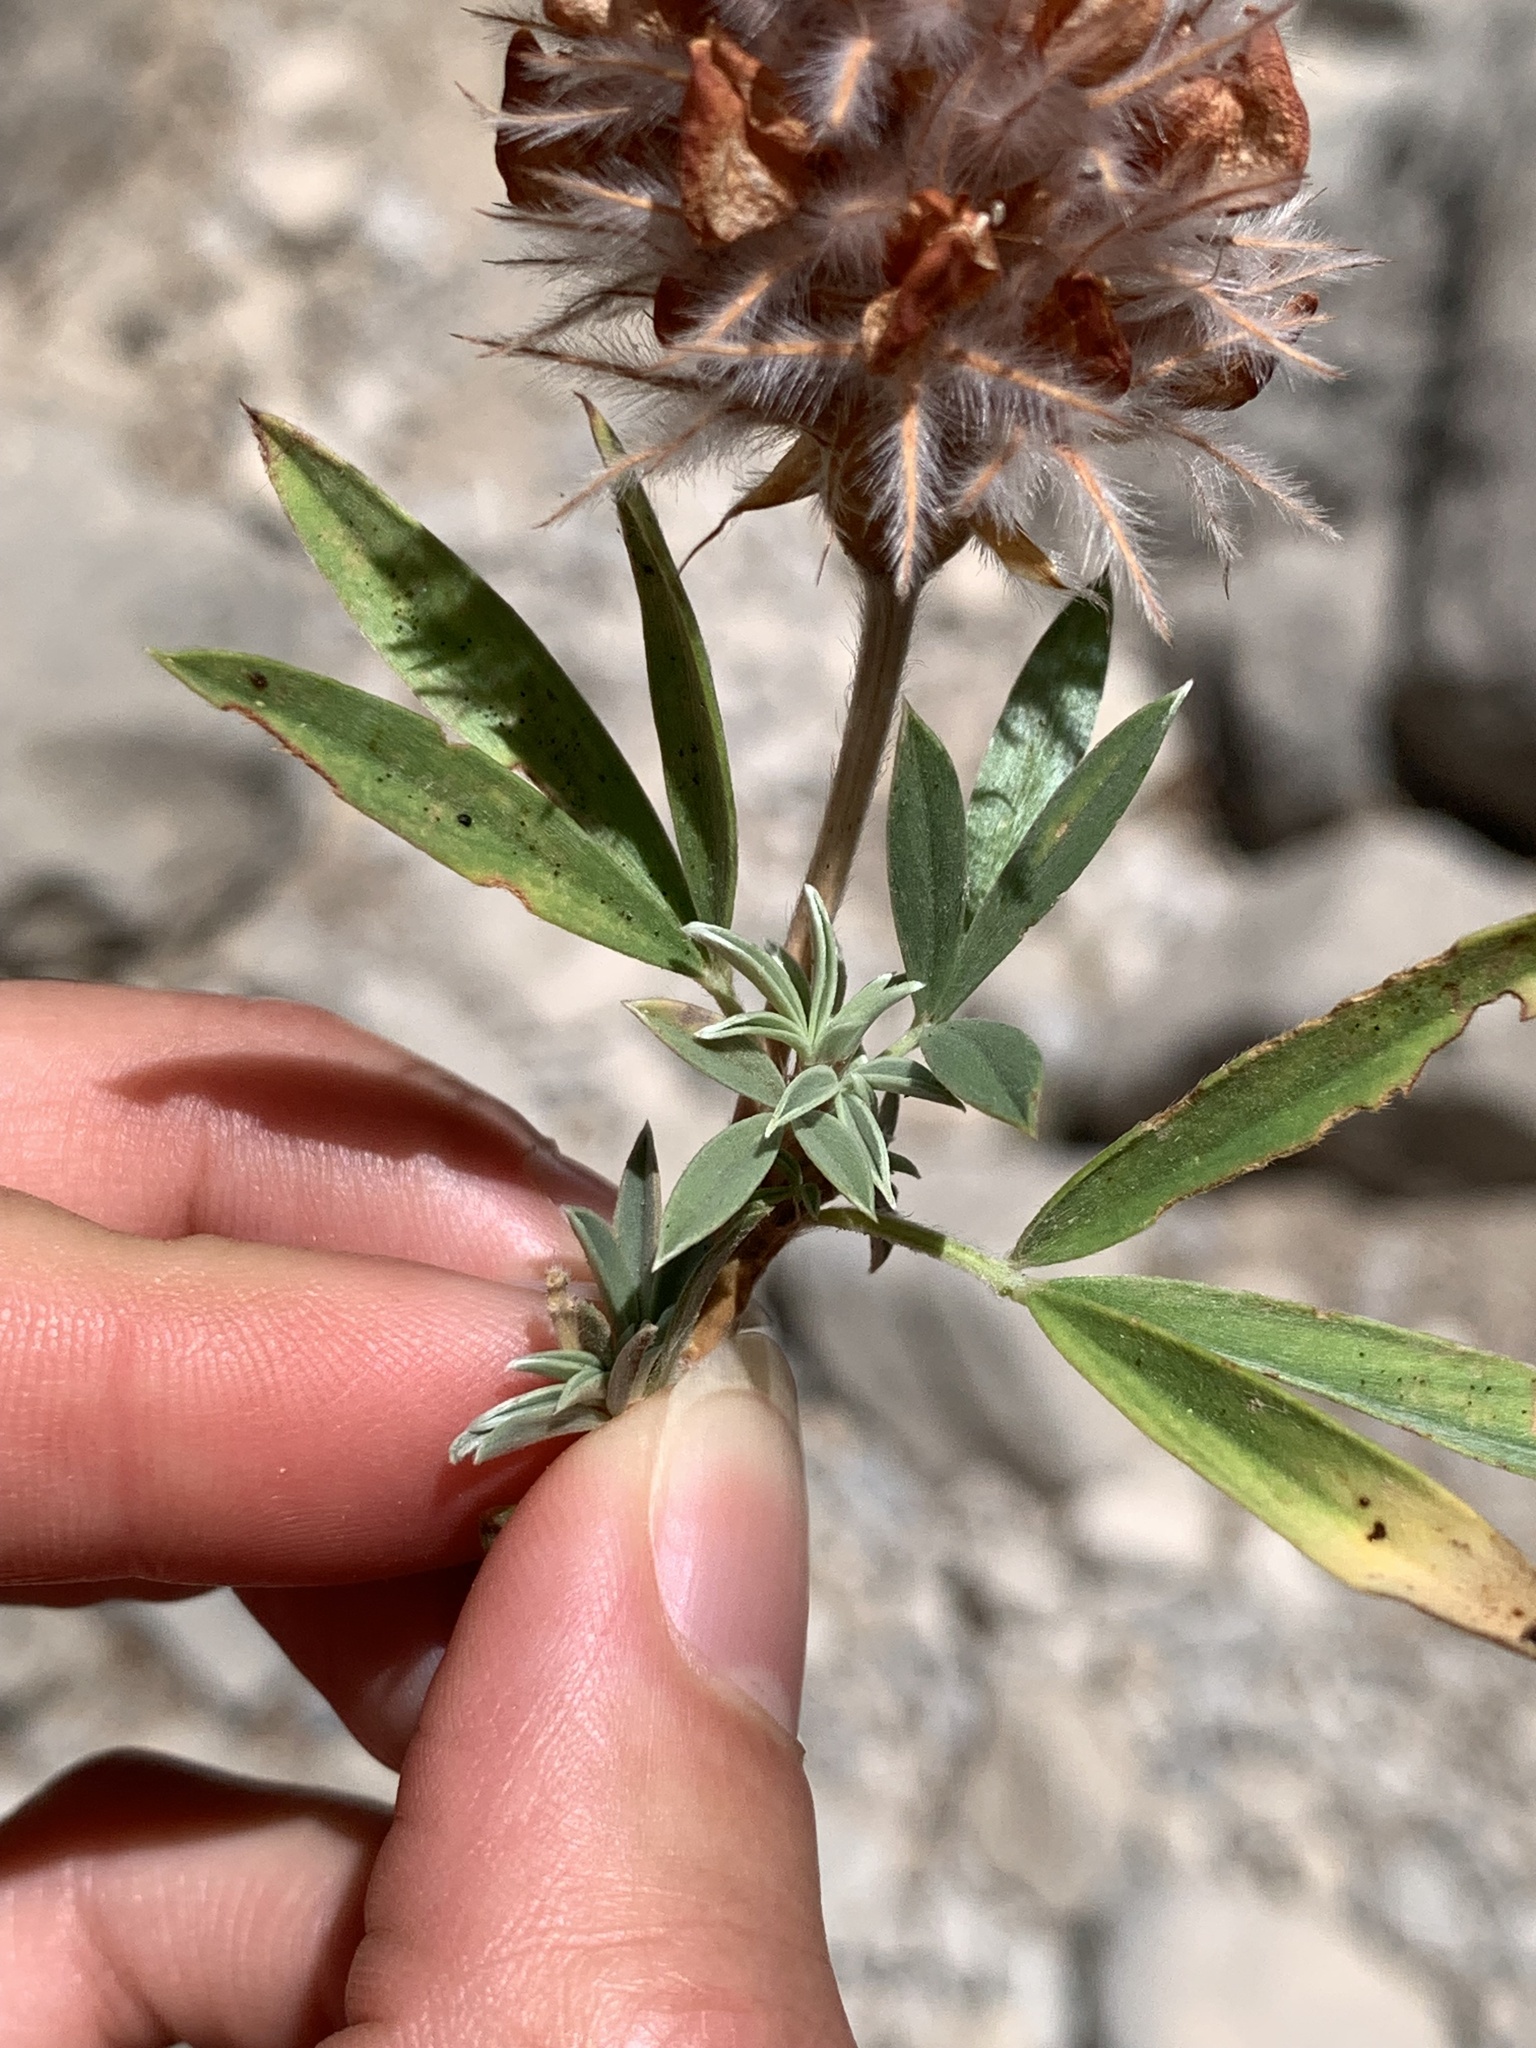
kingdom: Plantae
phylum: Tracheophyta
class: Magnoliopsida
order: Fabales
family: Fabaceae
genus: Ebenus
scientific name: Ebenus cretica
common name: Cretan silver bush
